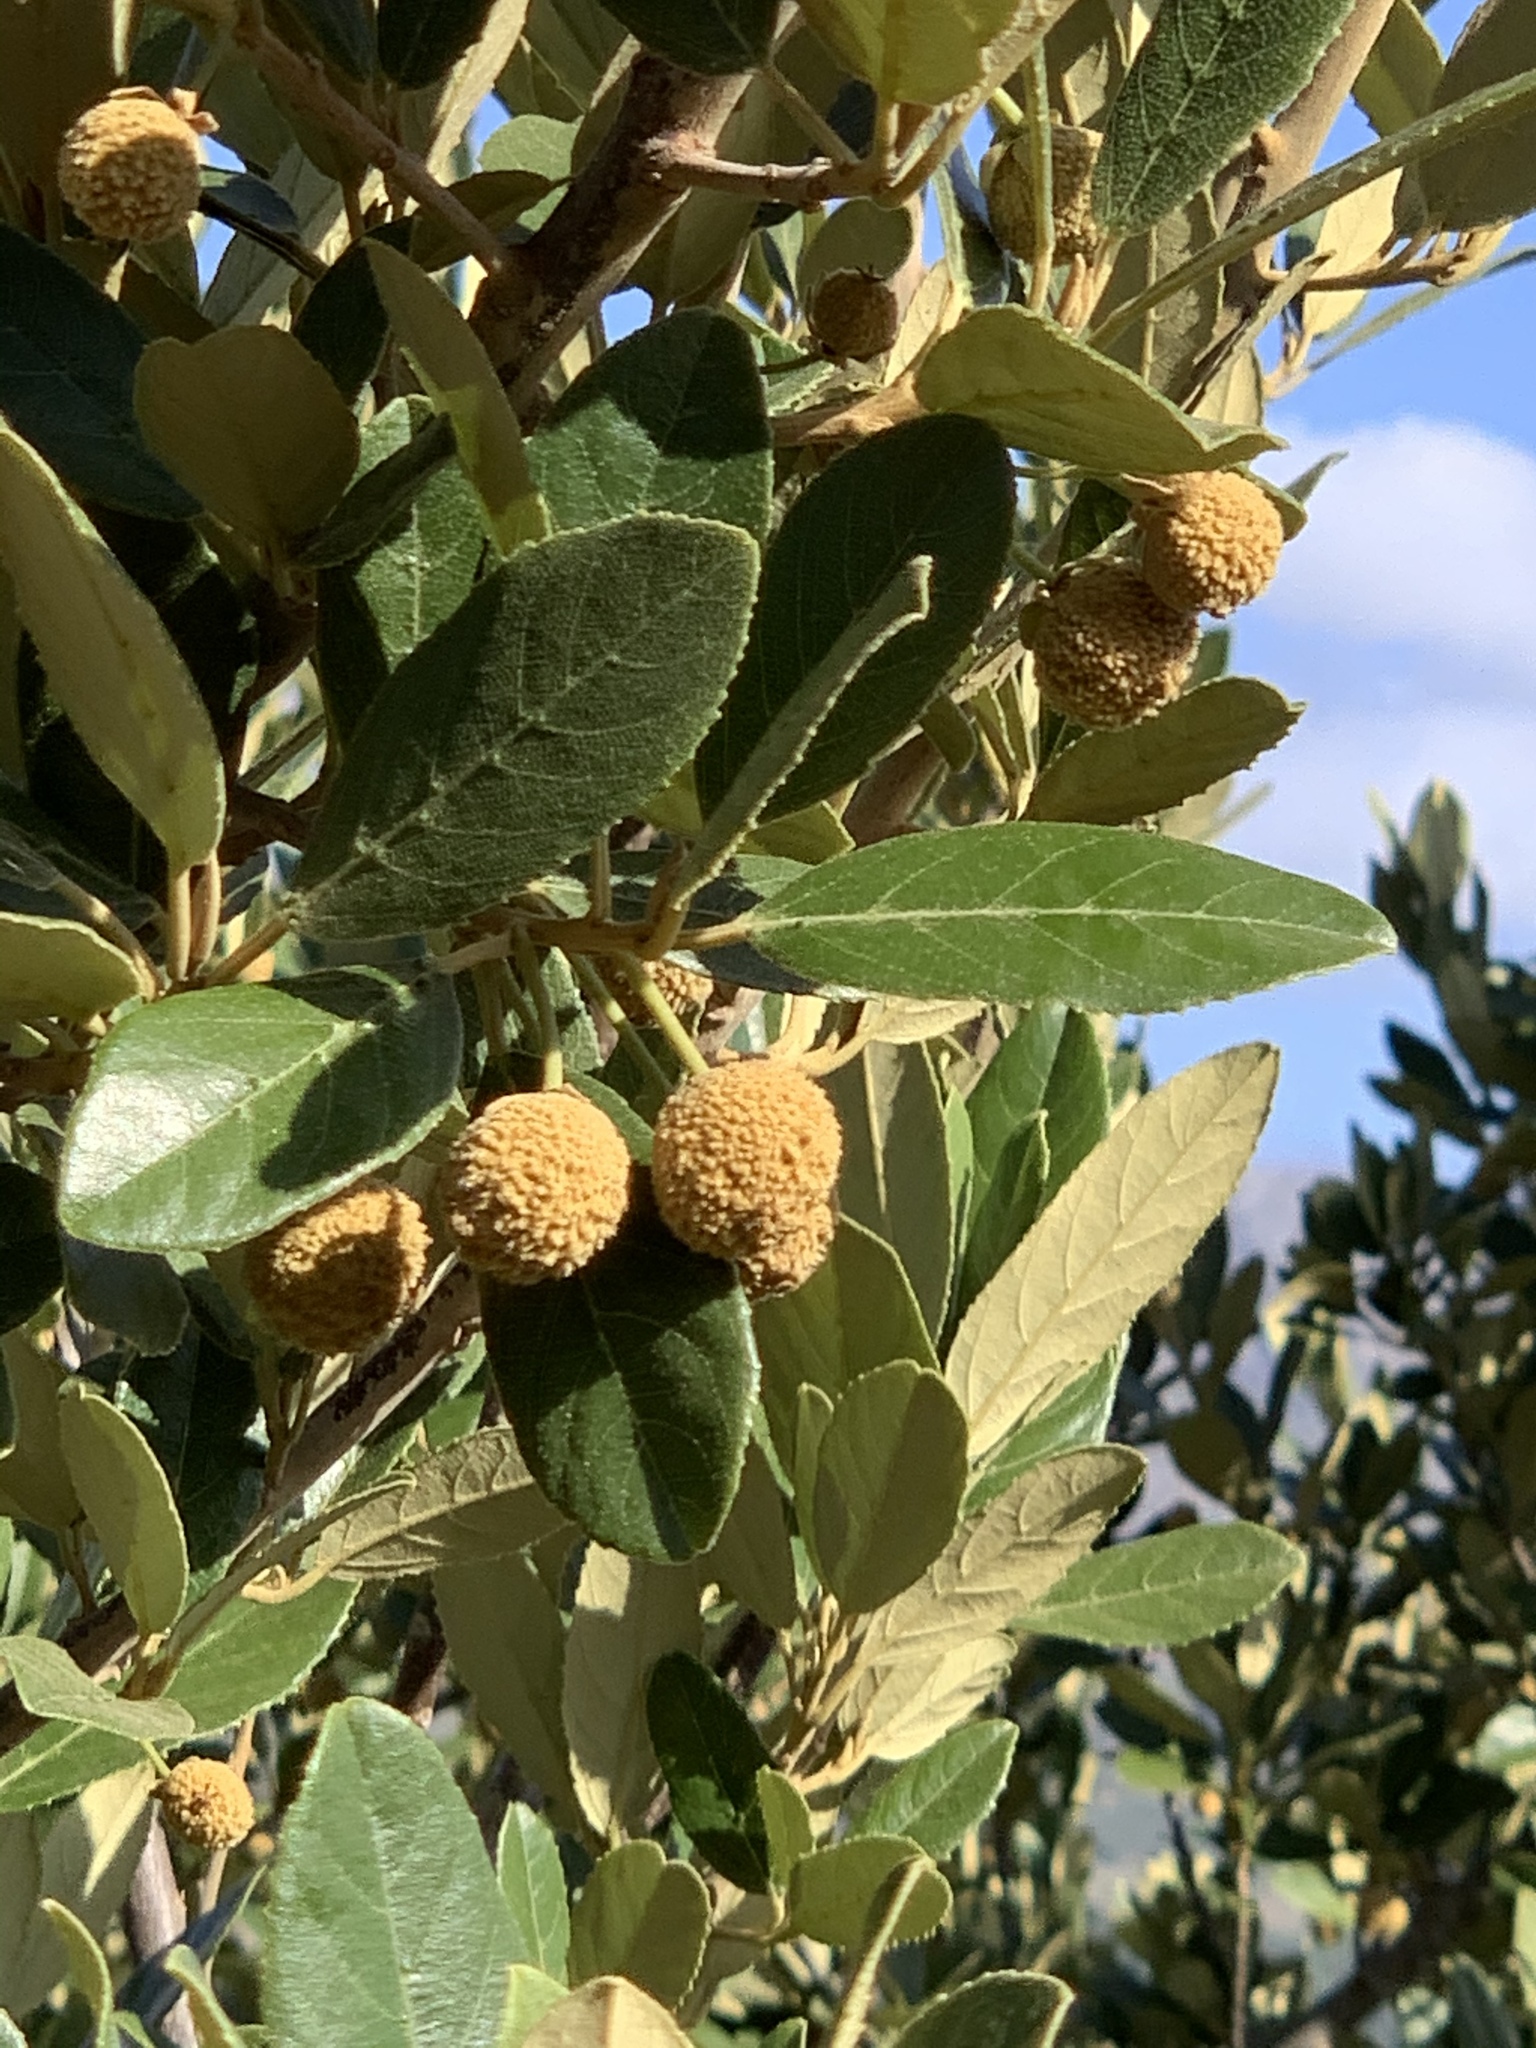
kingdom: Plantae
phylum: Tracheophyta
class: Magnoliopsida
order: Malpighiales
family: Achariaceae
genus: Kiggelaria
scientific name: Kiggelaria africana
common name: Wild peach
